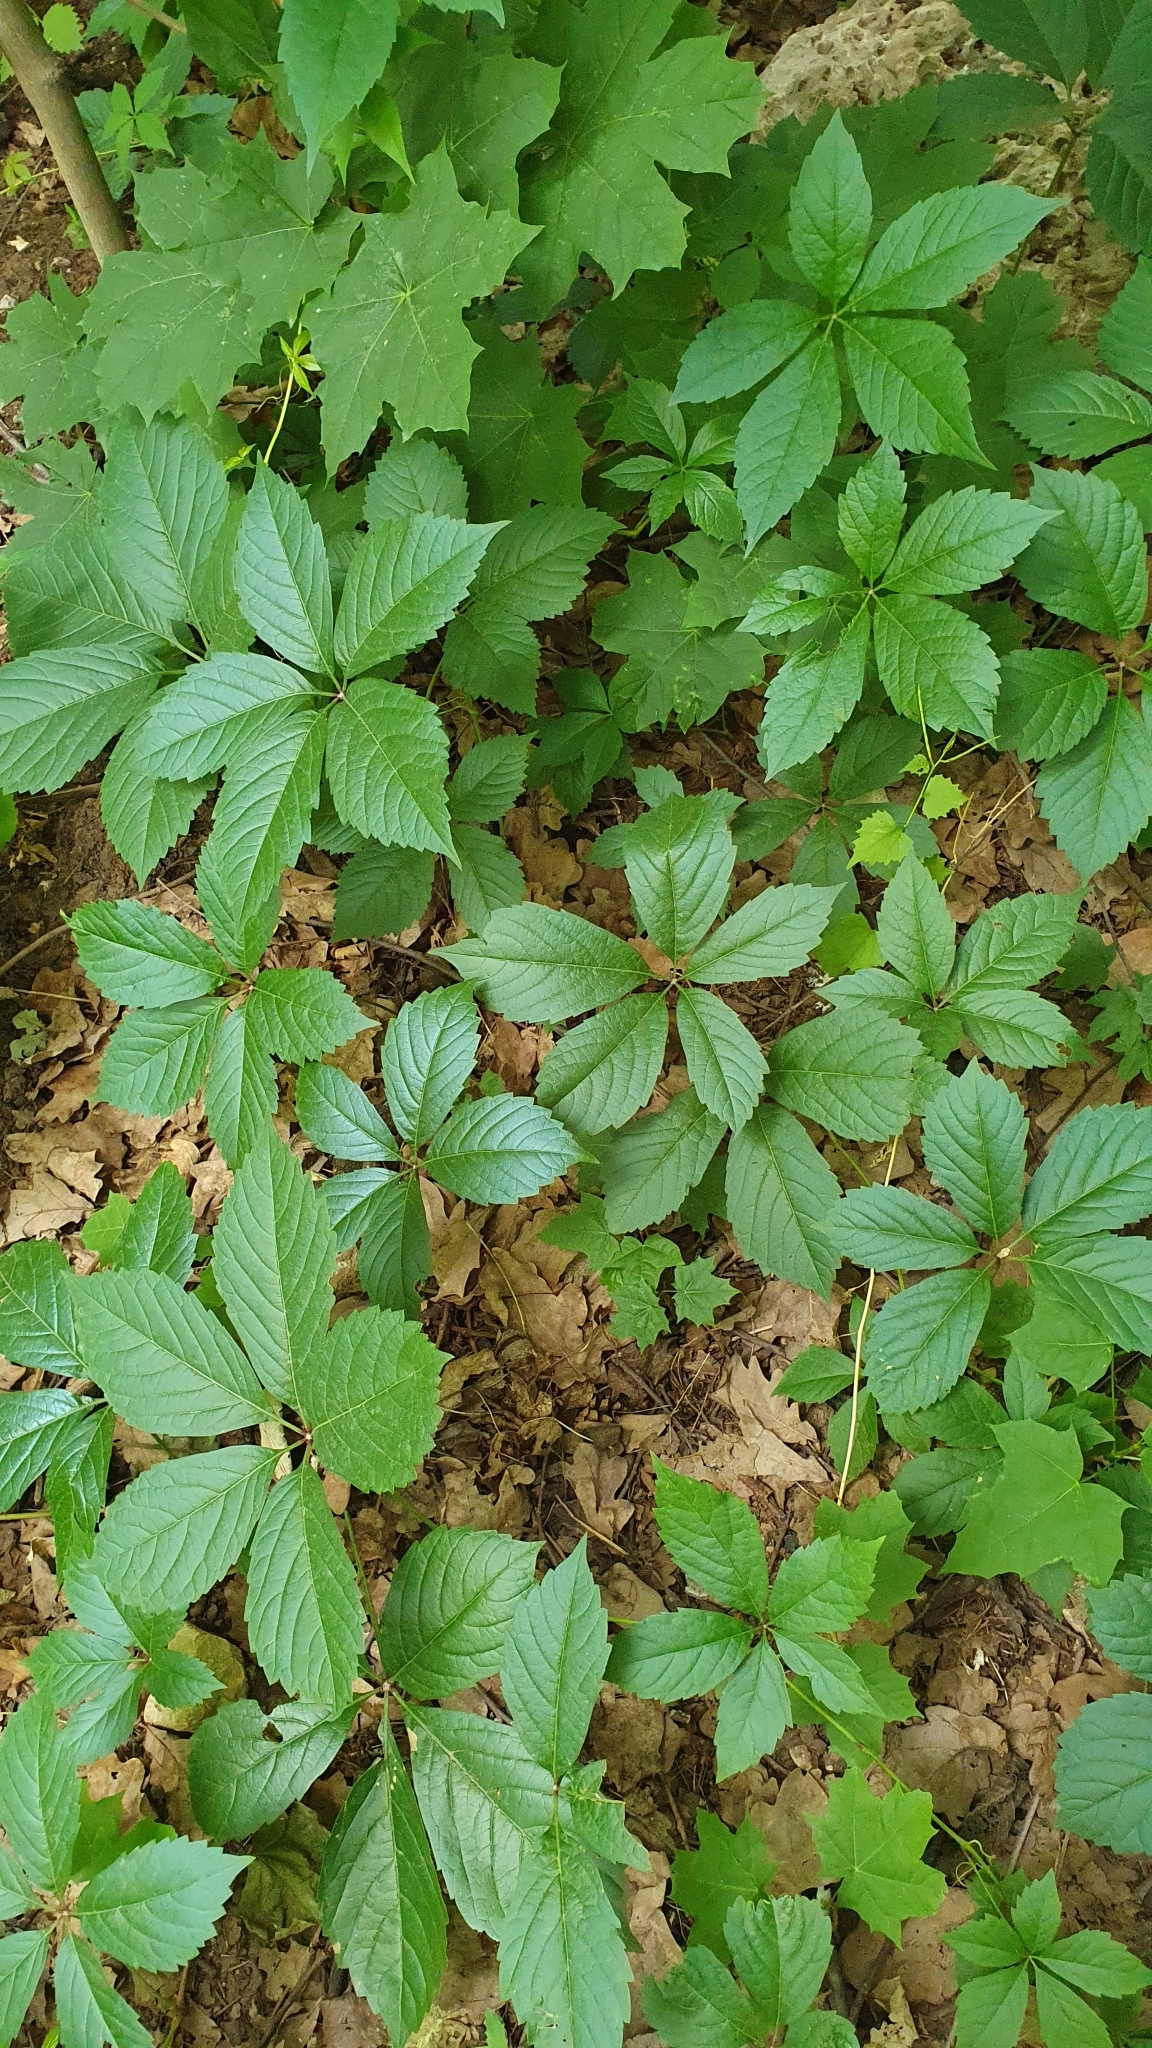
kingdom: Plantae
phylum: Tracheophyta
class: Magnoliopsida
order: Vitales
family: Vitaceae
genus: Parthenocissus
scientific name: Parthenocissus inserta
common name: False virginia-creeper
